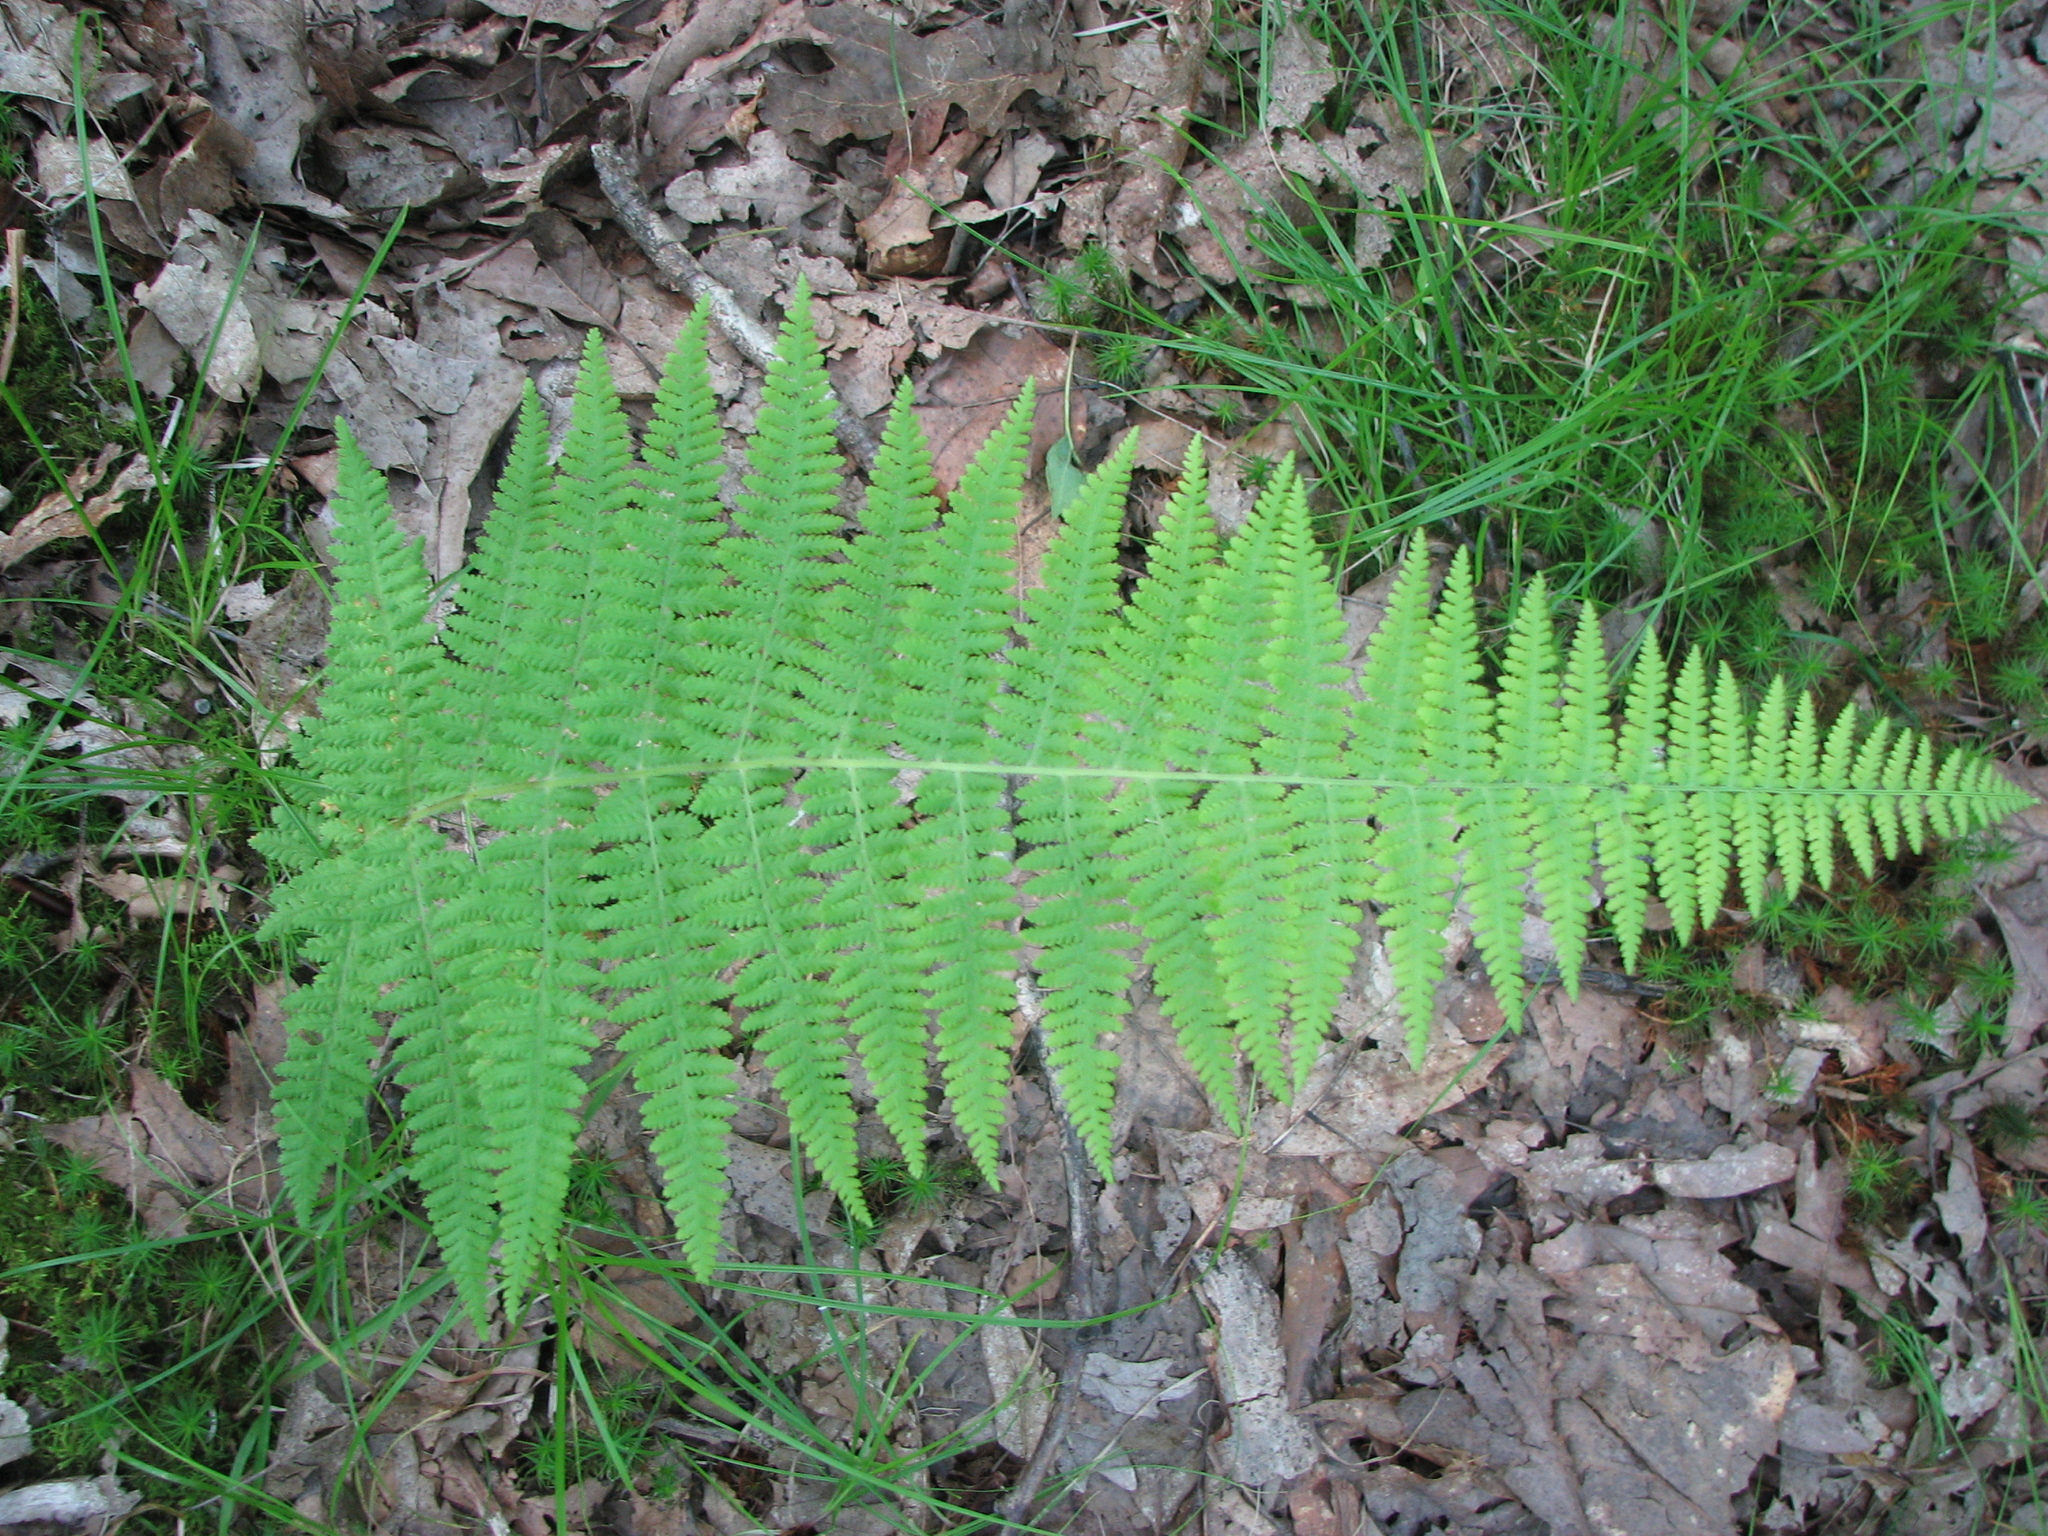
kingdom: Plantae
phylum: Tracheophyta
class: Polypodiopsida
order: Polypodiales
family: Dennstaedtiaceae
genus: Sitobolium
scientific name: Sitobolium punctilobum
